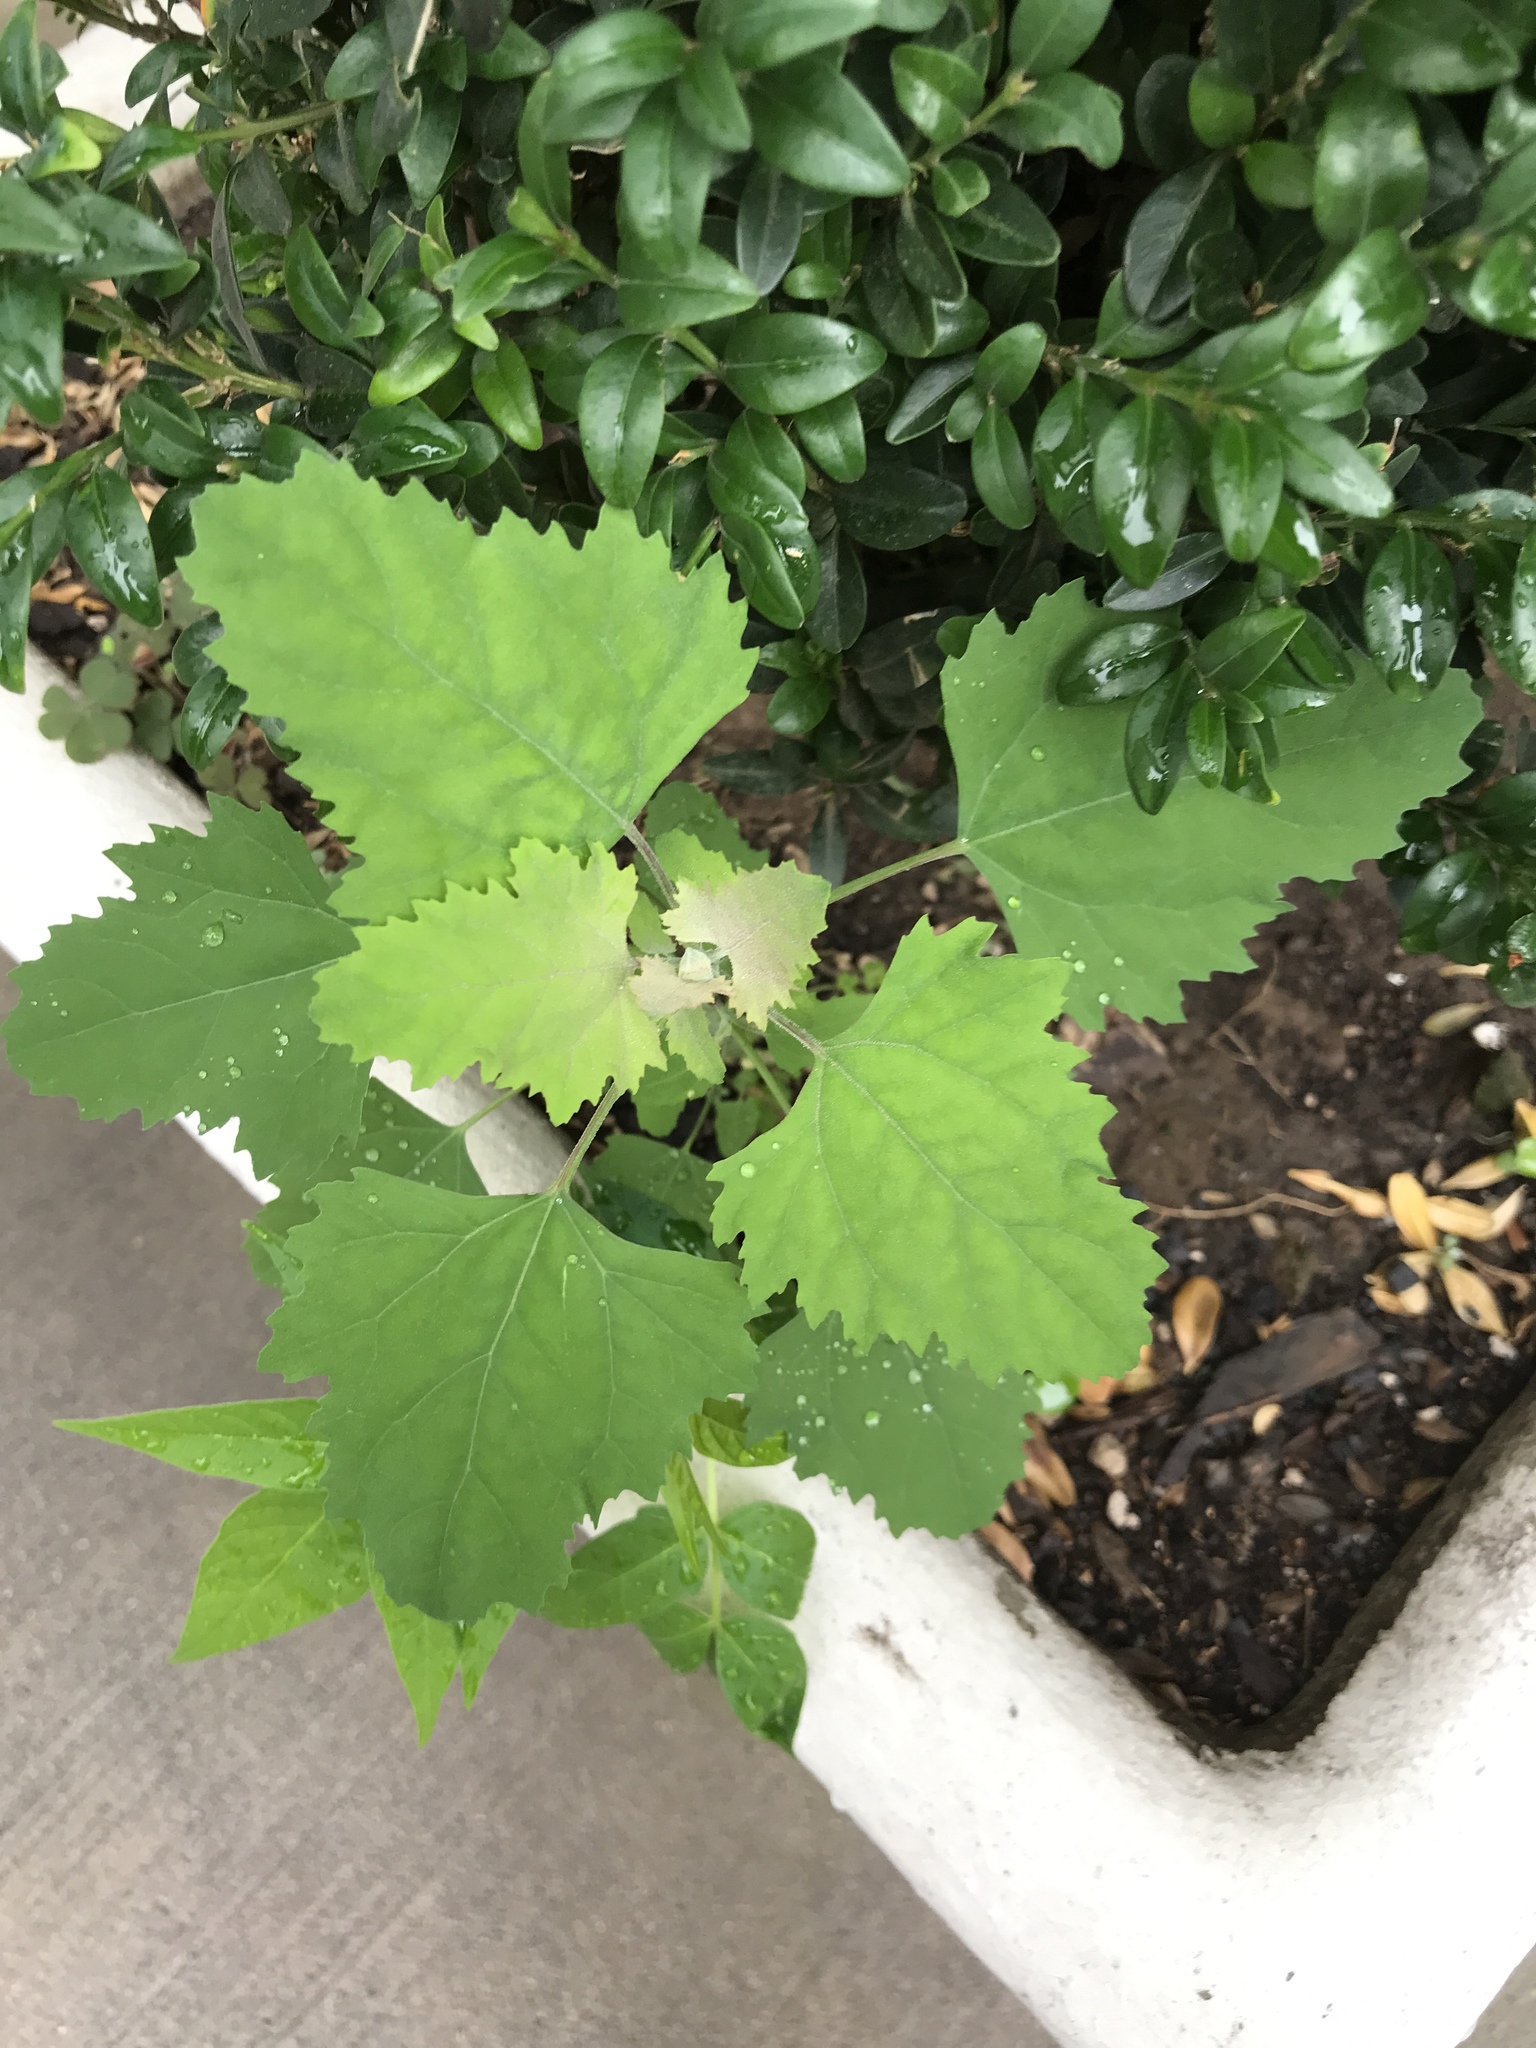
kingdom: Plantae
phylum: Tracheophyta
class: Magnoliopsida
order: Caryophyllales
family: Amaranthaceae
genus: Chenopodium
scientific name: Chenopodium album
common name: Fat-hen
